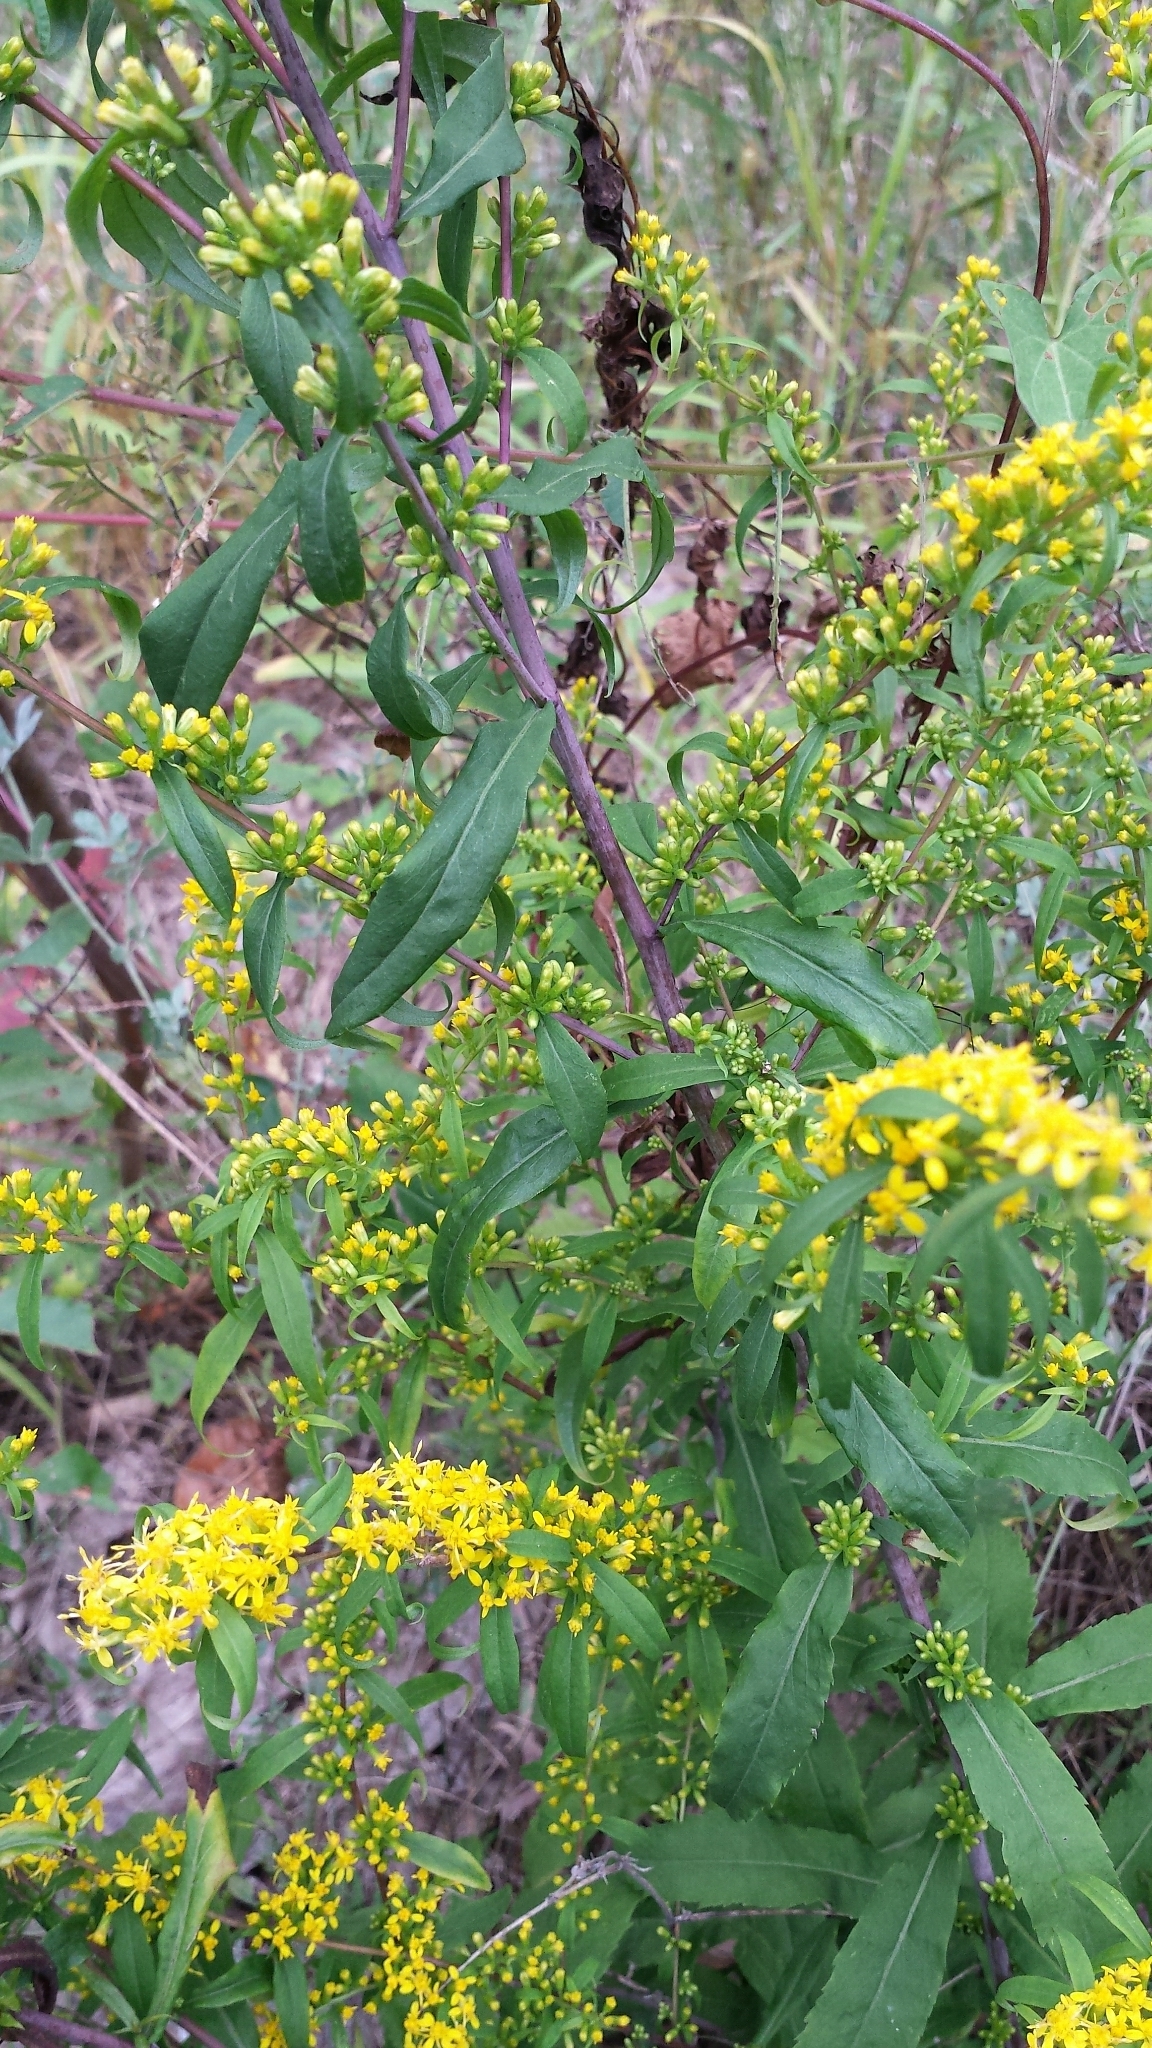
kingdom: Plantae
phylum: Tracheophyta
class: Magnoliopsida
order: Asterales
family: Asteraceae
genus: Solidago
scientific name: Solidago caesia
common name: Woodland goldenrod
